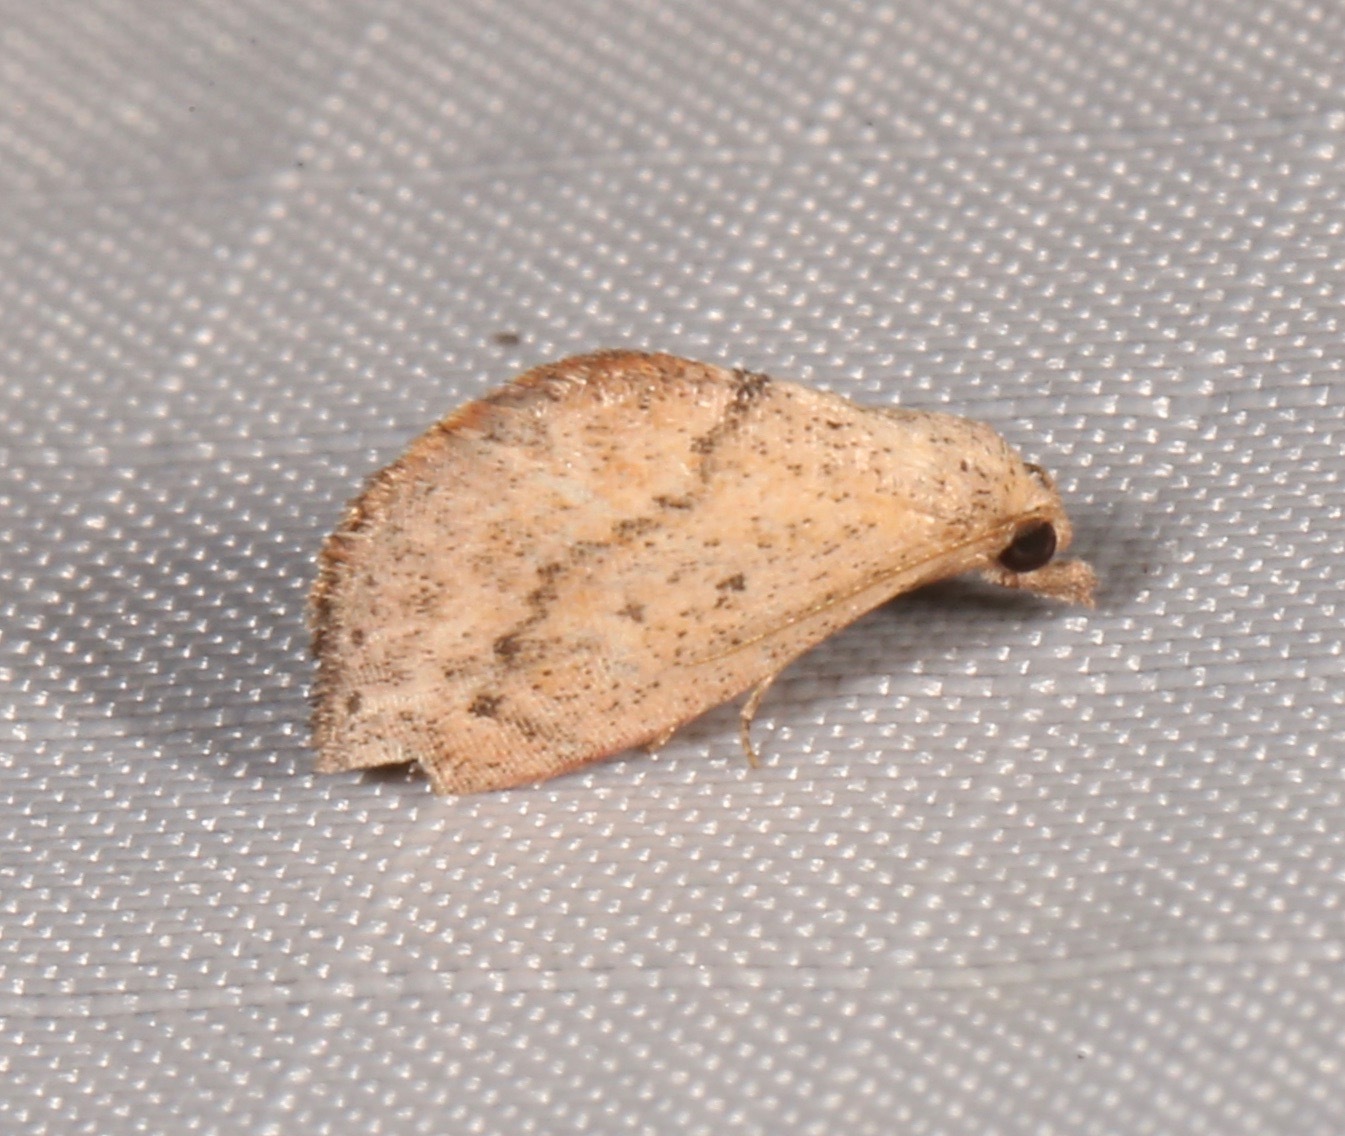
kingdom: Animalia
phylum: Arthropoda
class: Insecta
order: Lepidoptera
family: Noctuidae
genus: Proroblemma
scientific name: Proroblemma testa
